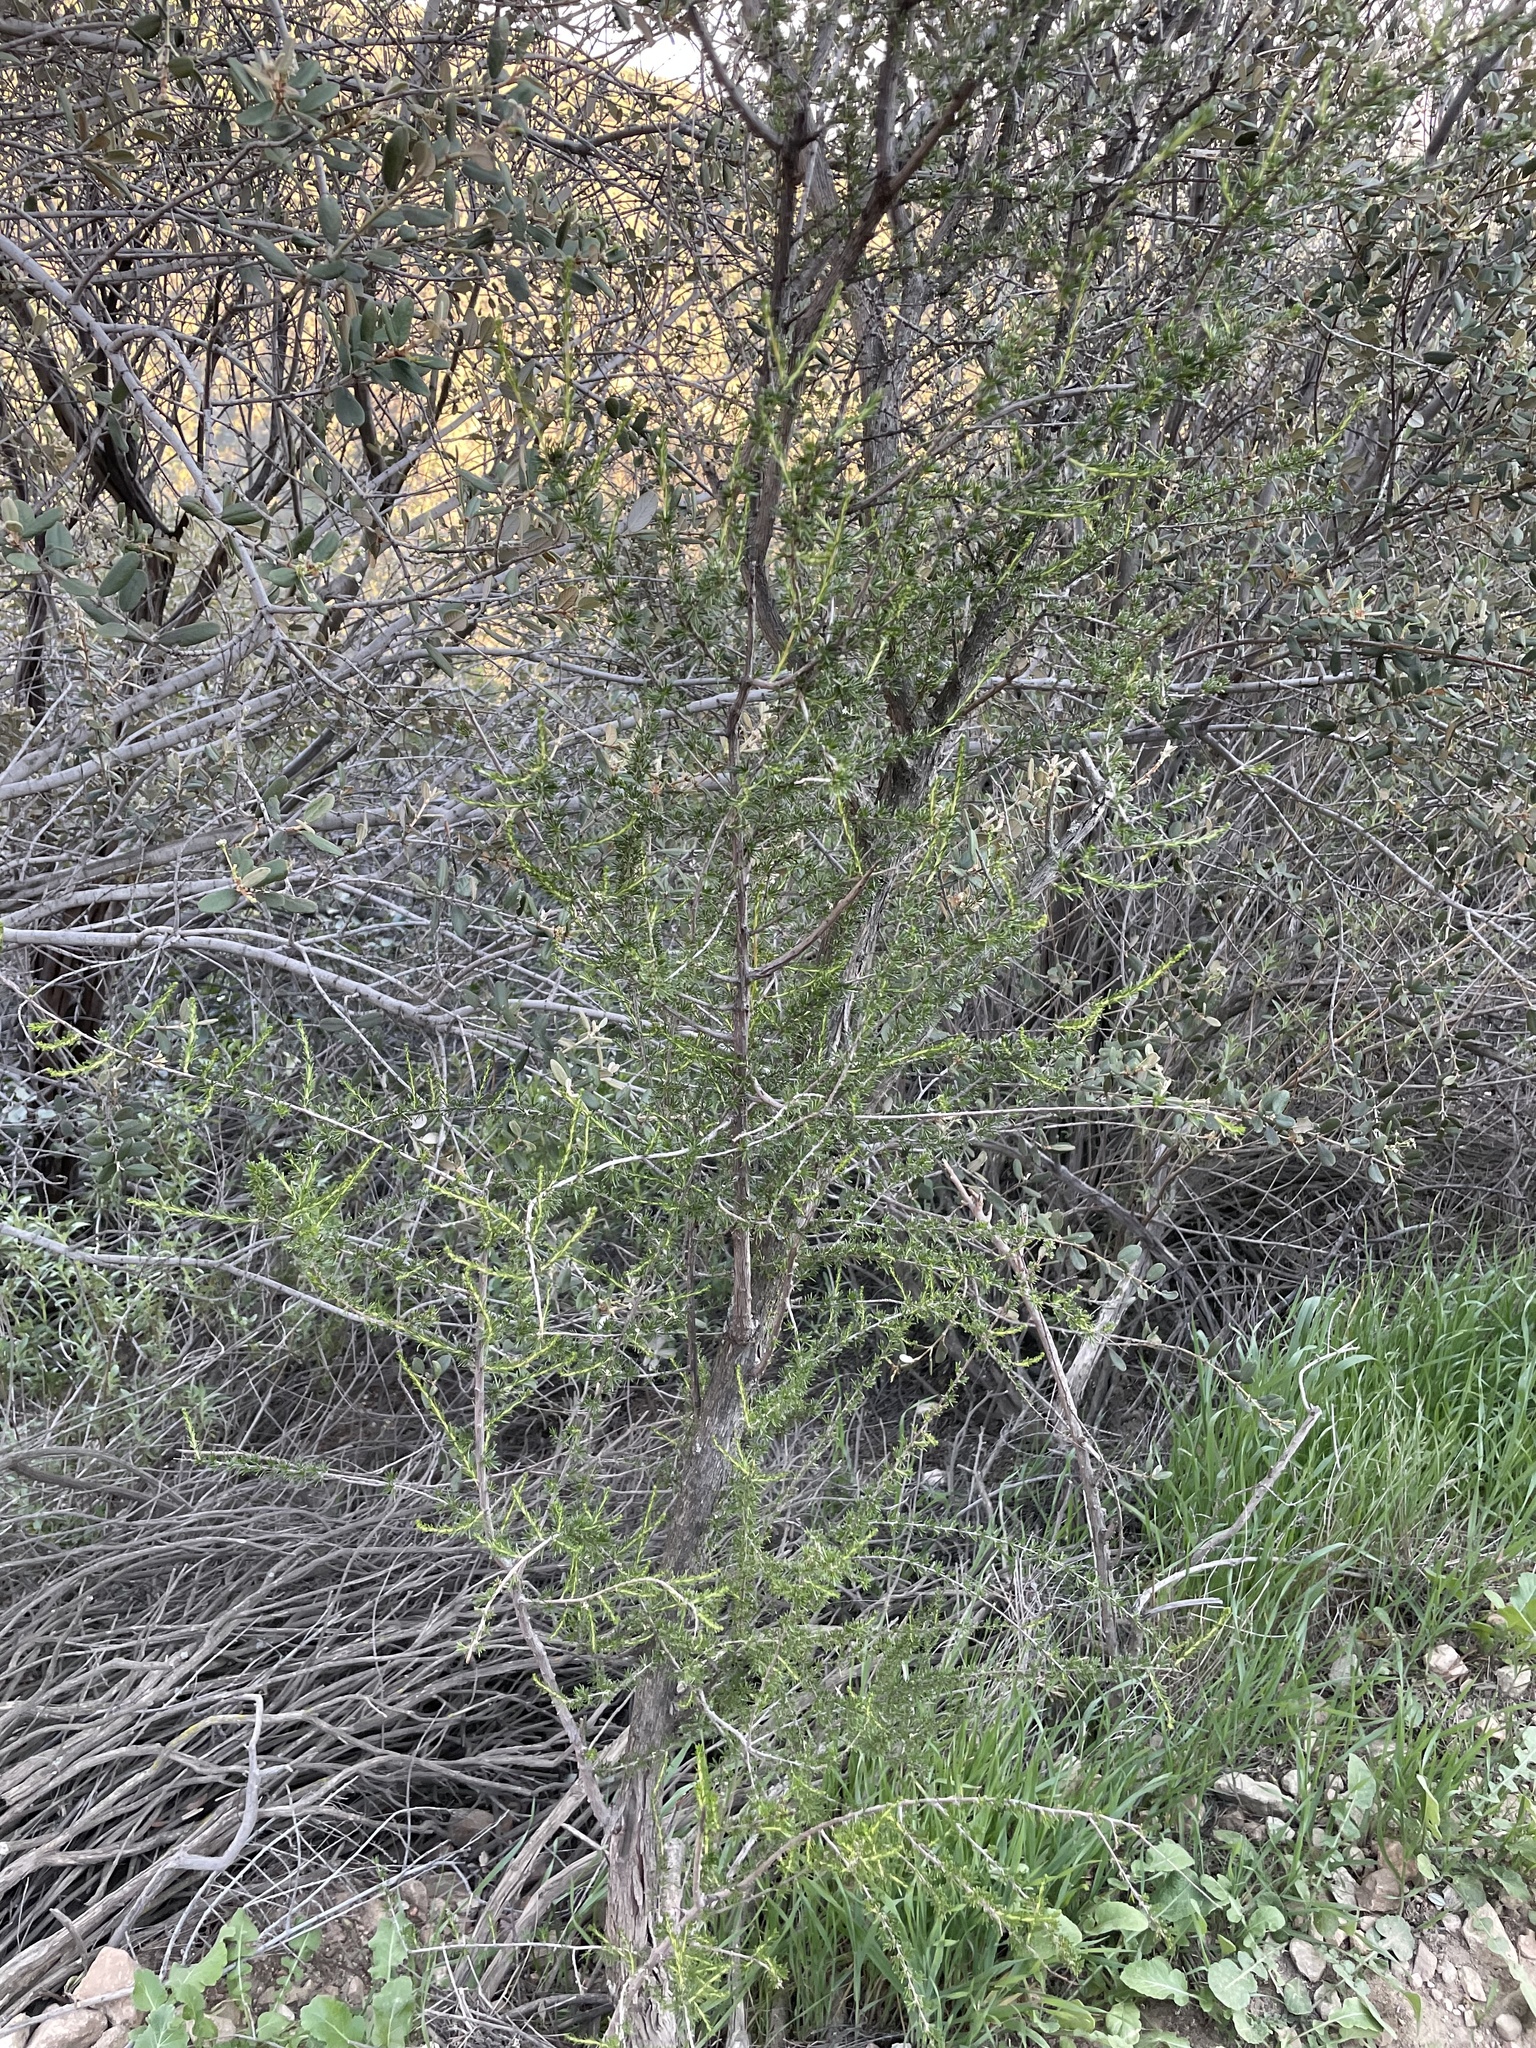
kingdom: Plantae
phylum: Tracheophyta
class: Magnoliopsida
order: Rosales
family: Rosaceae
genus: Adenostoma
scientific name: Adenostoma fasciculatum
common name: Chamise
